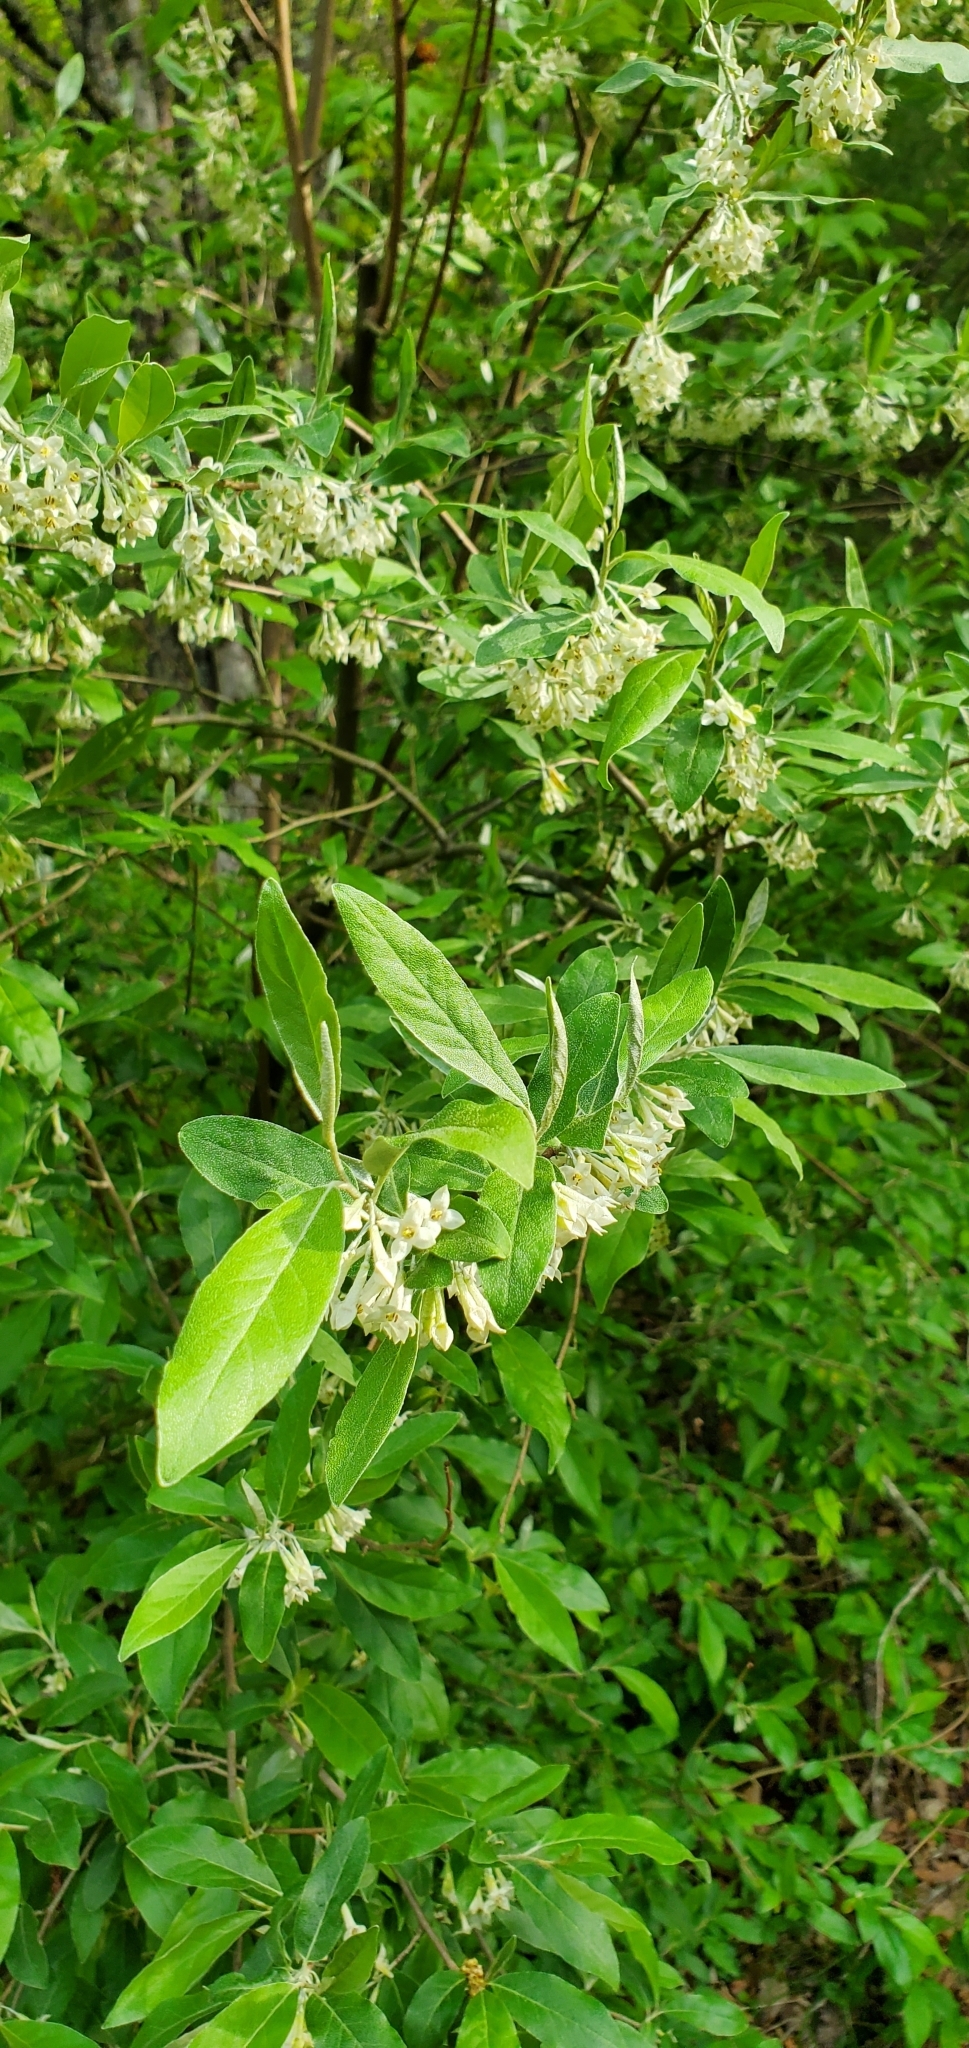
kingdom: Plantae
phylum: Tracheophyta
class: Magnoliopsida
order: Rosales
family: Elaeagnaceae
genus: Elaeagnus
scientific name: Elaeagnus umbellata
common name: Autumn olive
